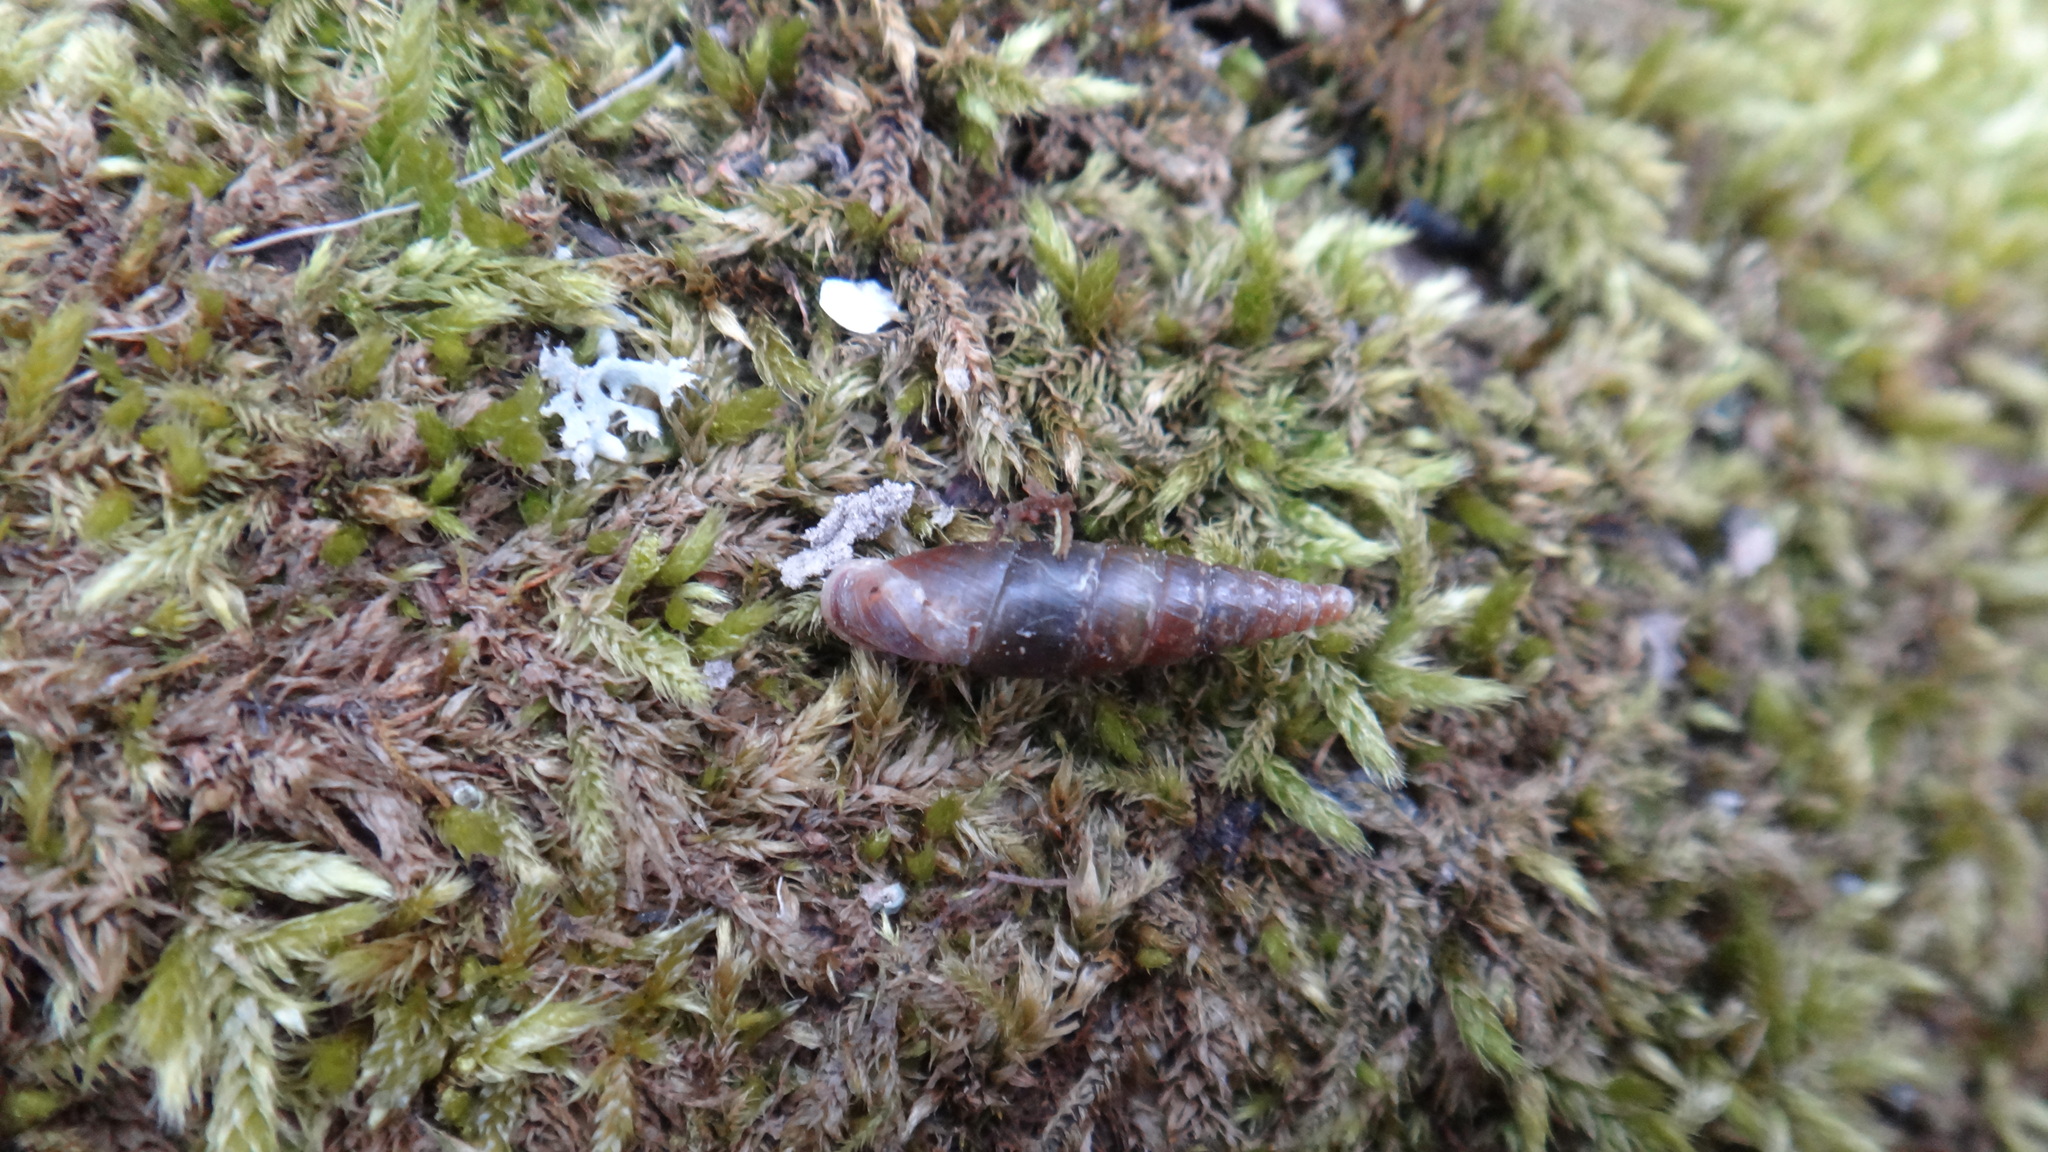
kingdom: Animalia
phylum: Mollusca
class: Gastropoda
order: Stylommatophora
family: Clausiliidae
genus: Cochlodina
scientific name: Cochlodina laminata
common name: Plaited door snail
